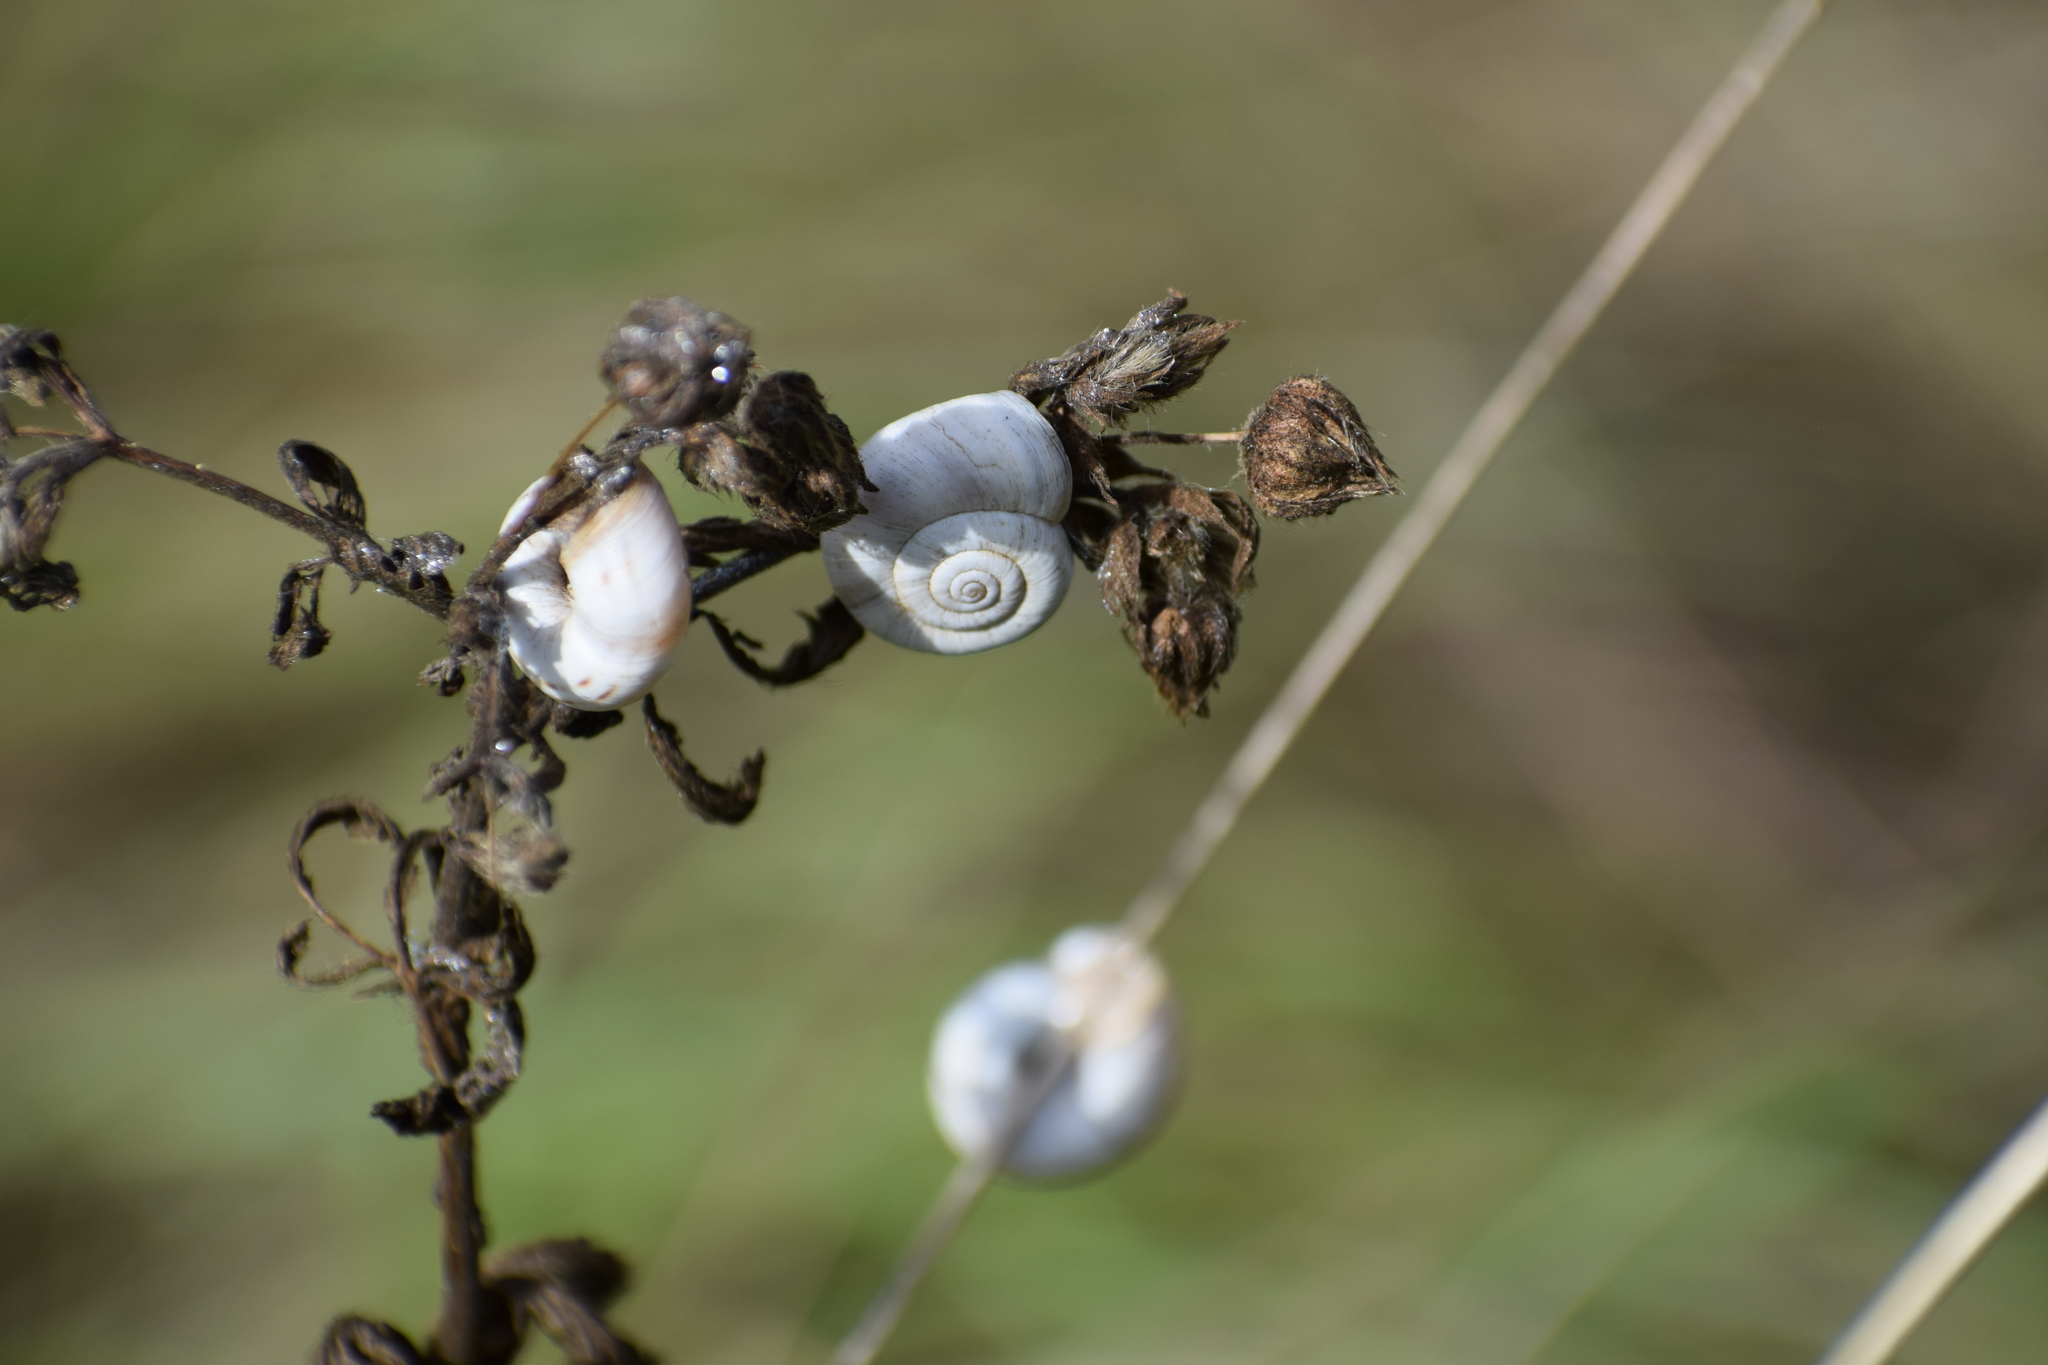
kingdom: Animalia
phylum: Mollusca
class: Gastropoda
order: Stylommatophora
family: Geomitridae
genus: Xerolenta
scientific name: Xerolenta obvia
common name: White heath snail
